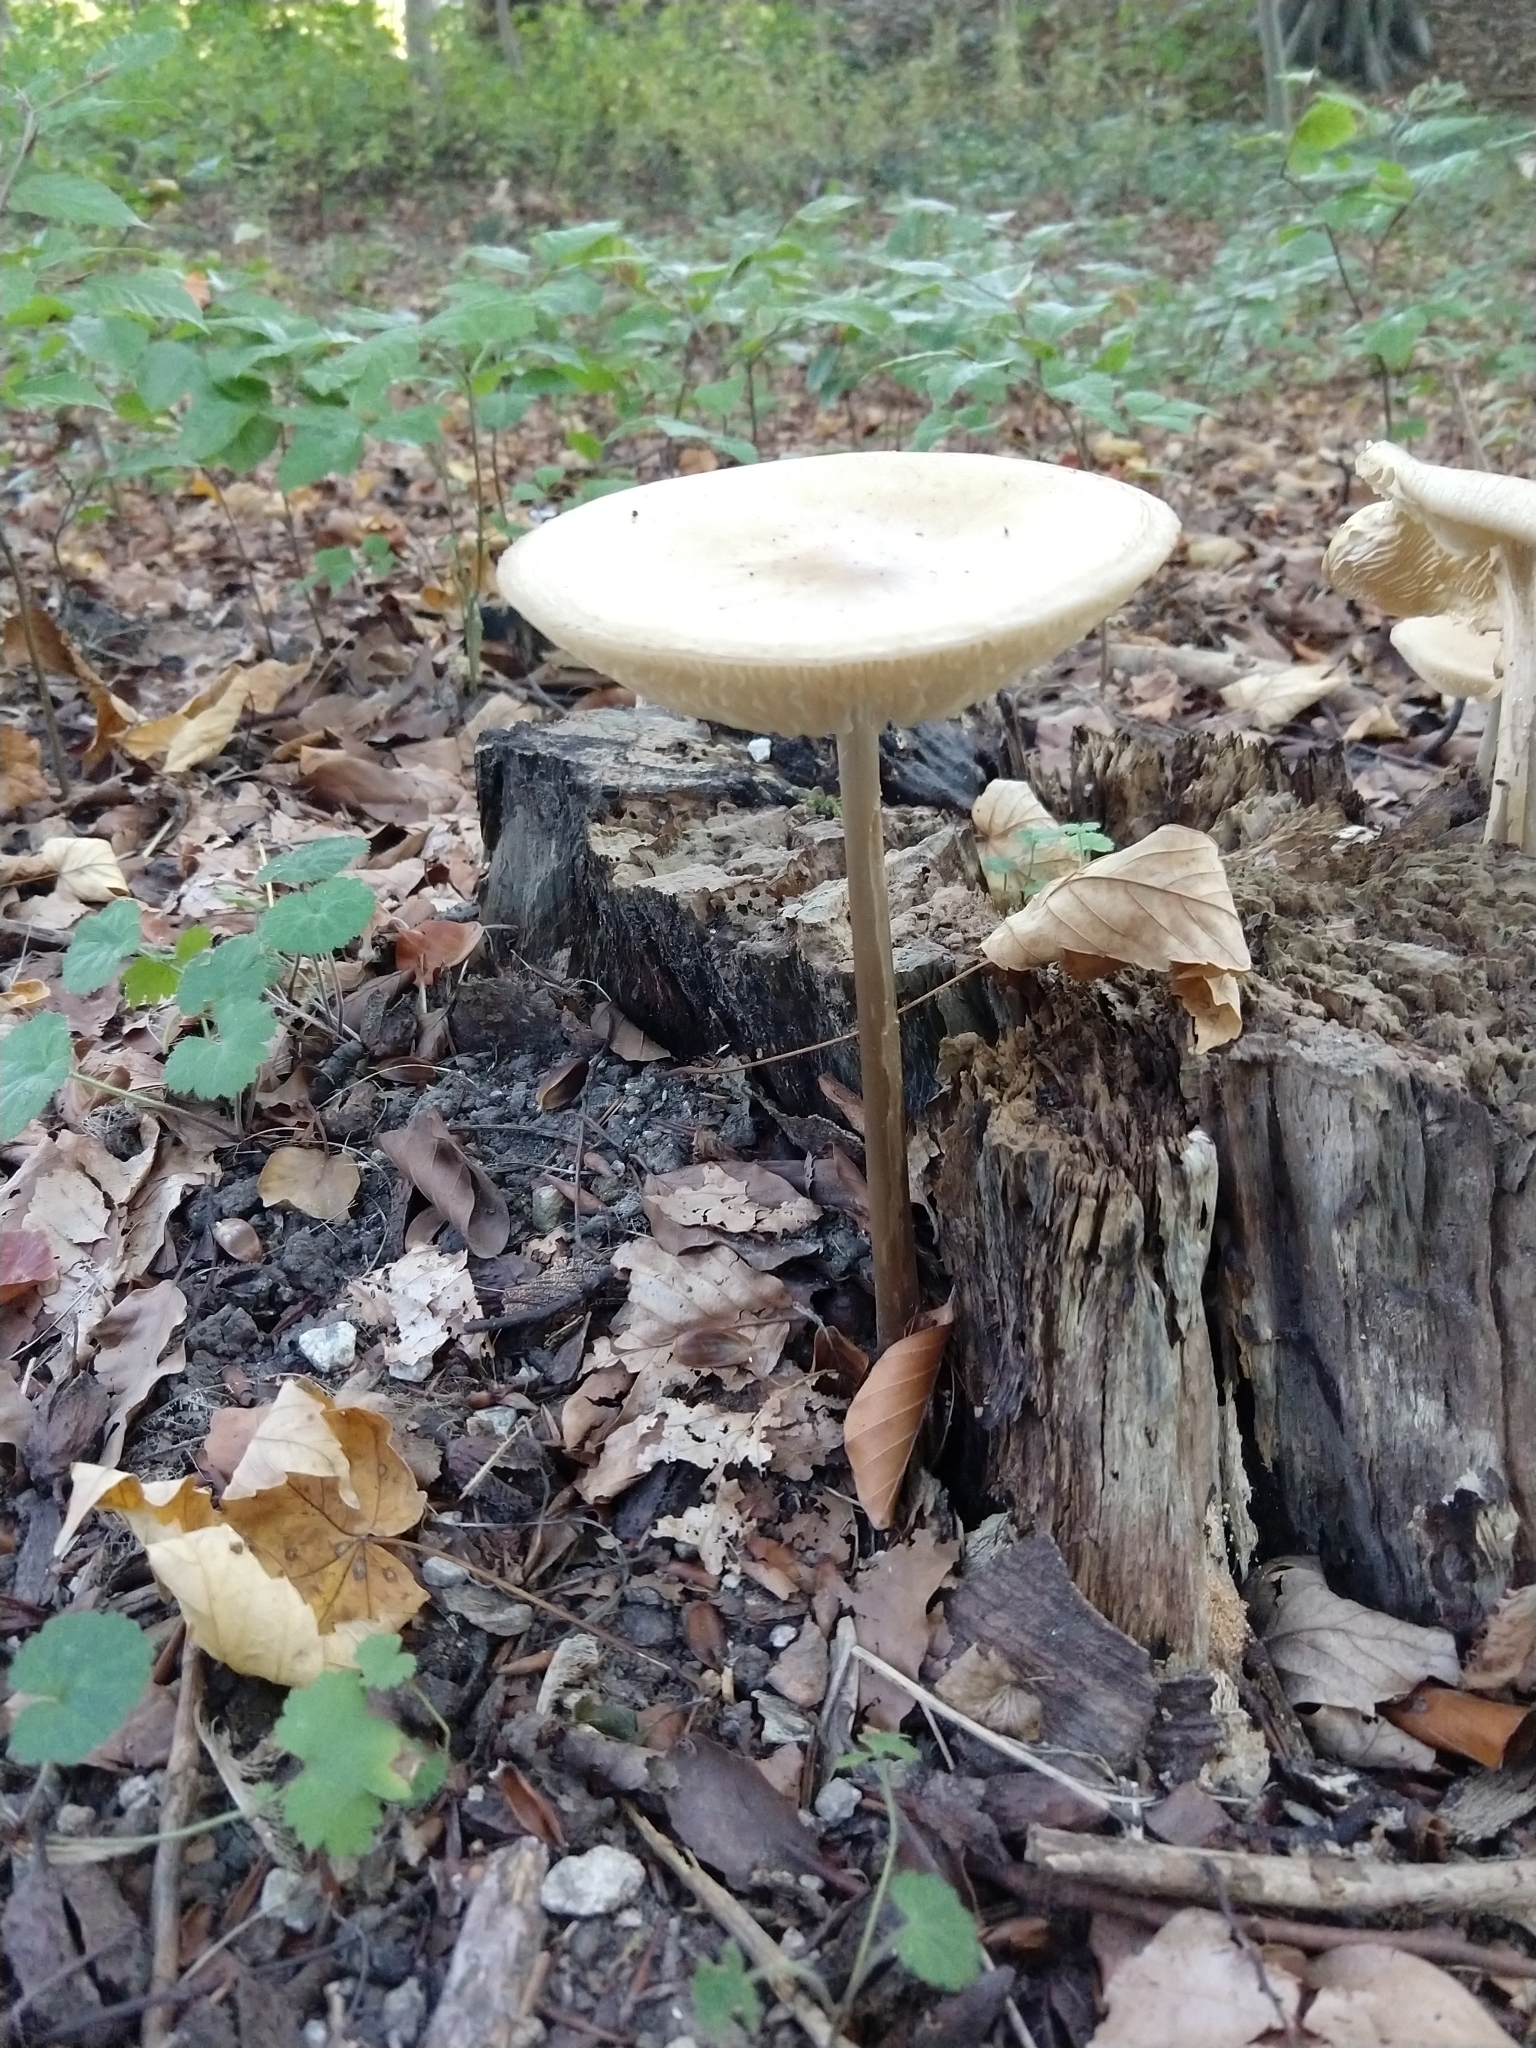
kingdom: Fungi
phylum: Basidiomycota
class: Agaricomycetes
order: Agaricales
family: Physalacriaceae
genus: Hymenopellis
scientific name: Hymenopellis radicata
